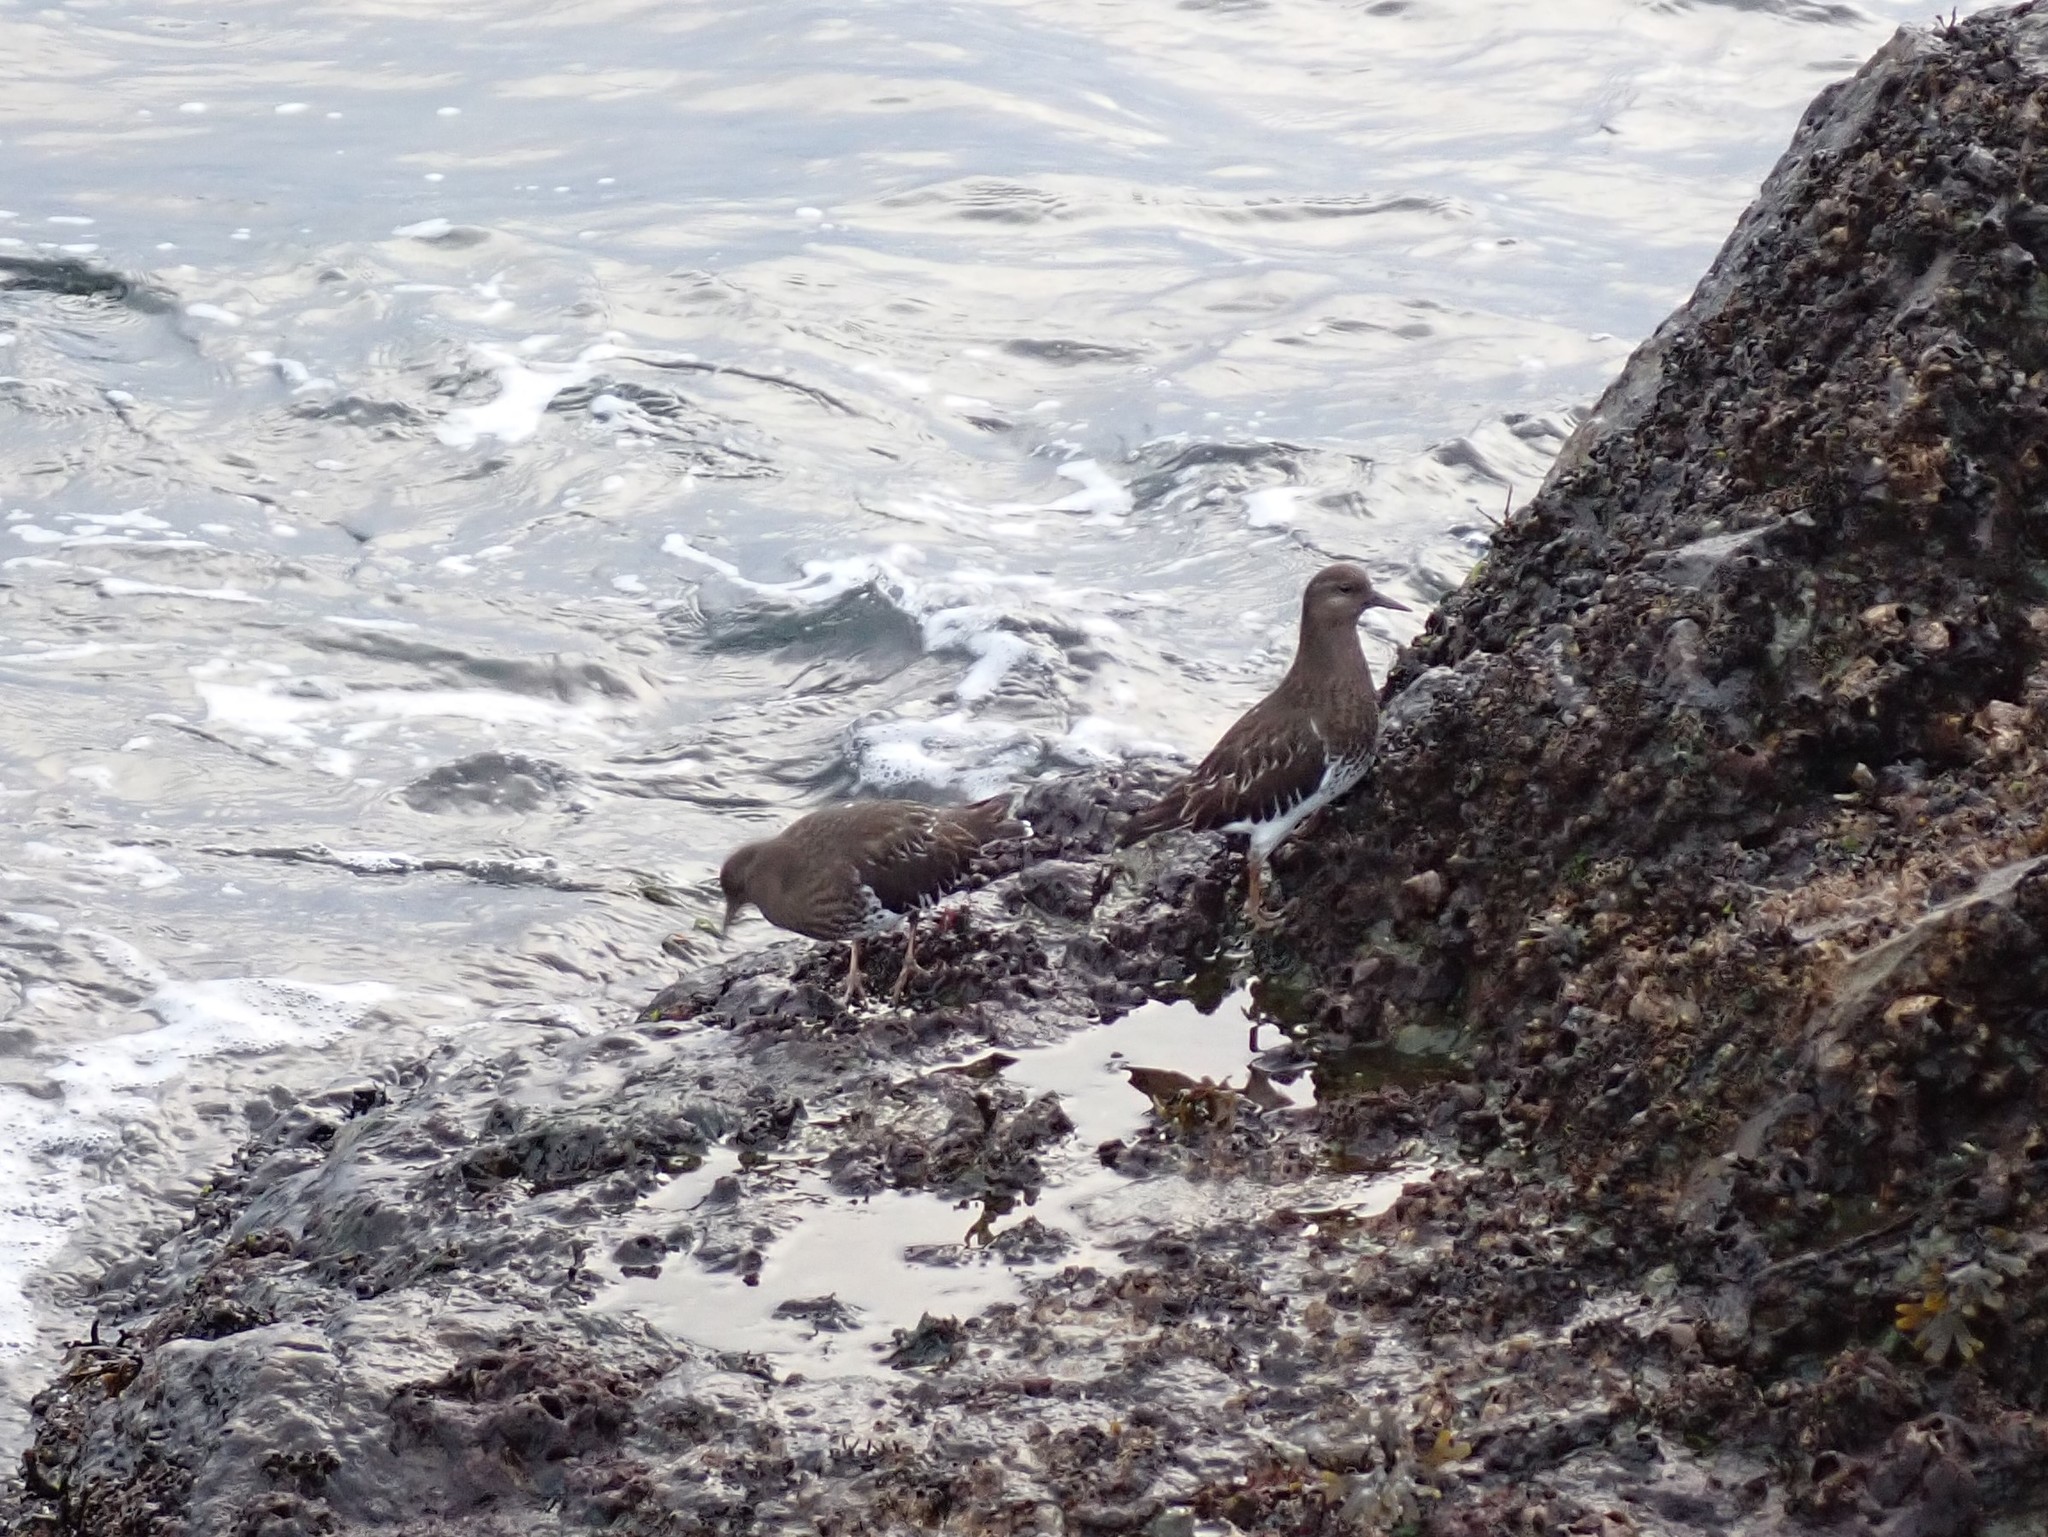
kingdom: Animalia
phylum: Chordata
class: Aves
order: Charadriiformes
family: Scolopacidae
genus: Arenaria
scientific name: Arenaria melanocephala
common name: Black turnstone
